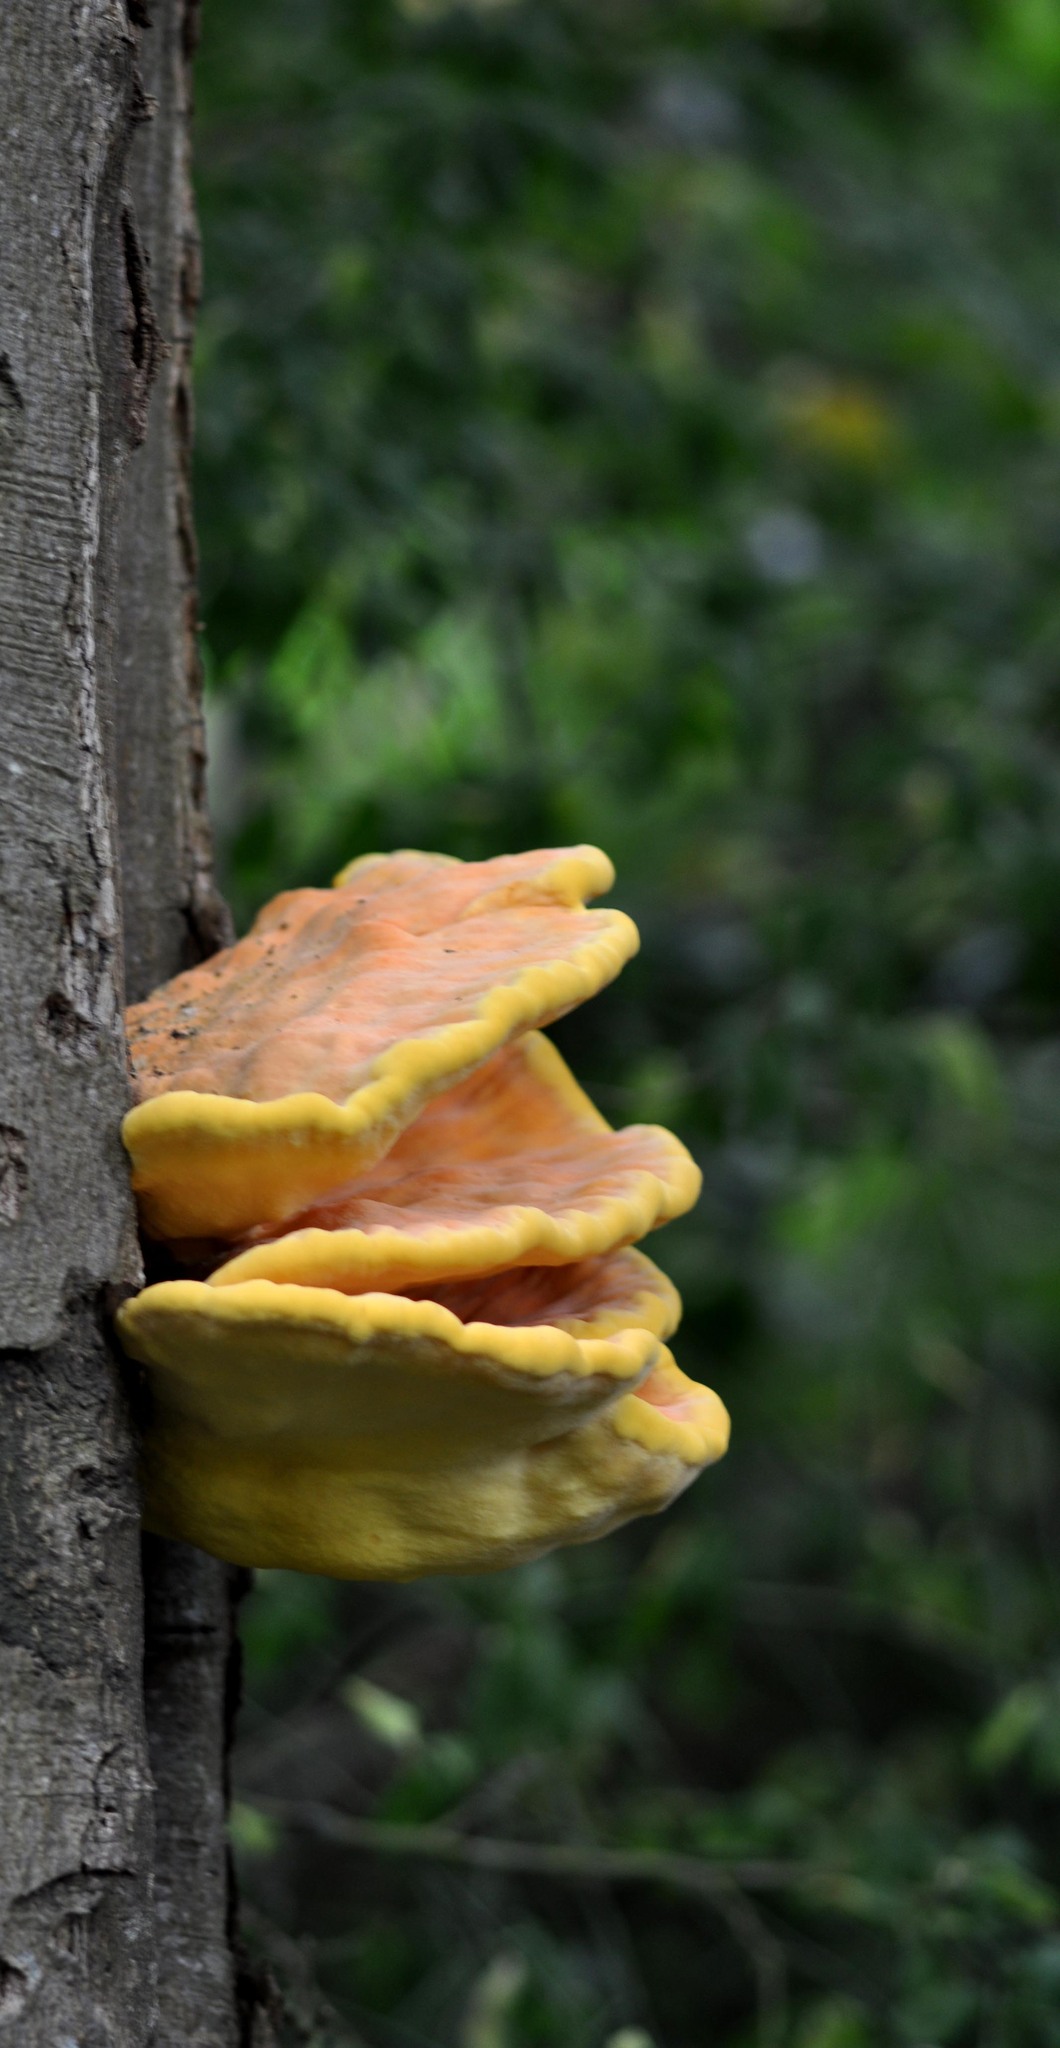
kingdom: Fungi
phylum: Basidiomycota
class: Agaricomycetes
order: Polyporales
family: Laetiporaceae
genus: Laetiporus
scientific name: Laetiporus sulphureus
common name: Chicken of the woods
